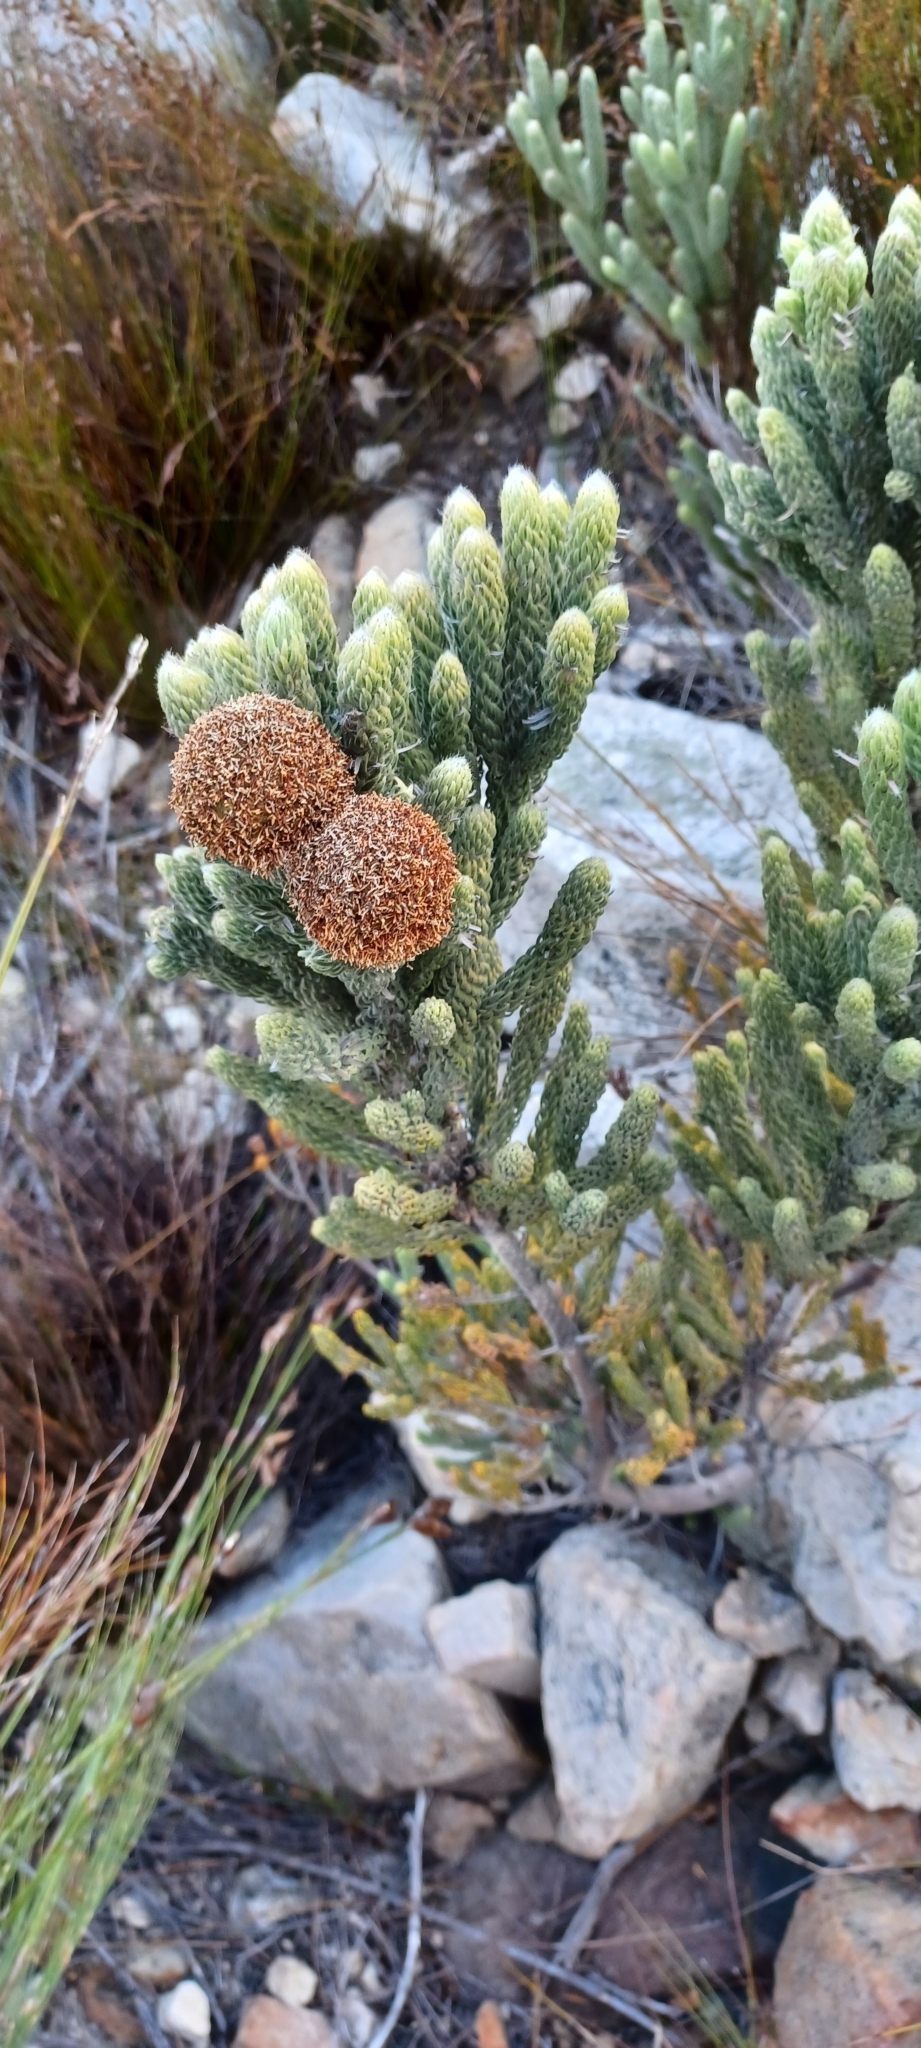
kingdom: Plantae
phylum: Tracheophyta
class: Magnoliopsida
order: Bruniales
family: Bruniaceae
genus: Brunia
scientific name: Brunia macrocephala
